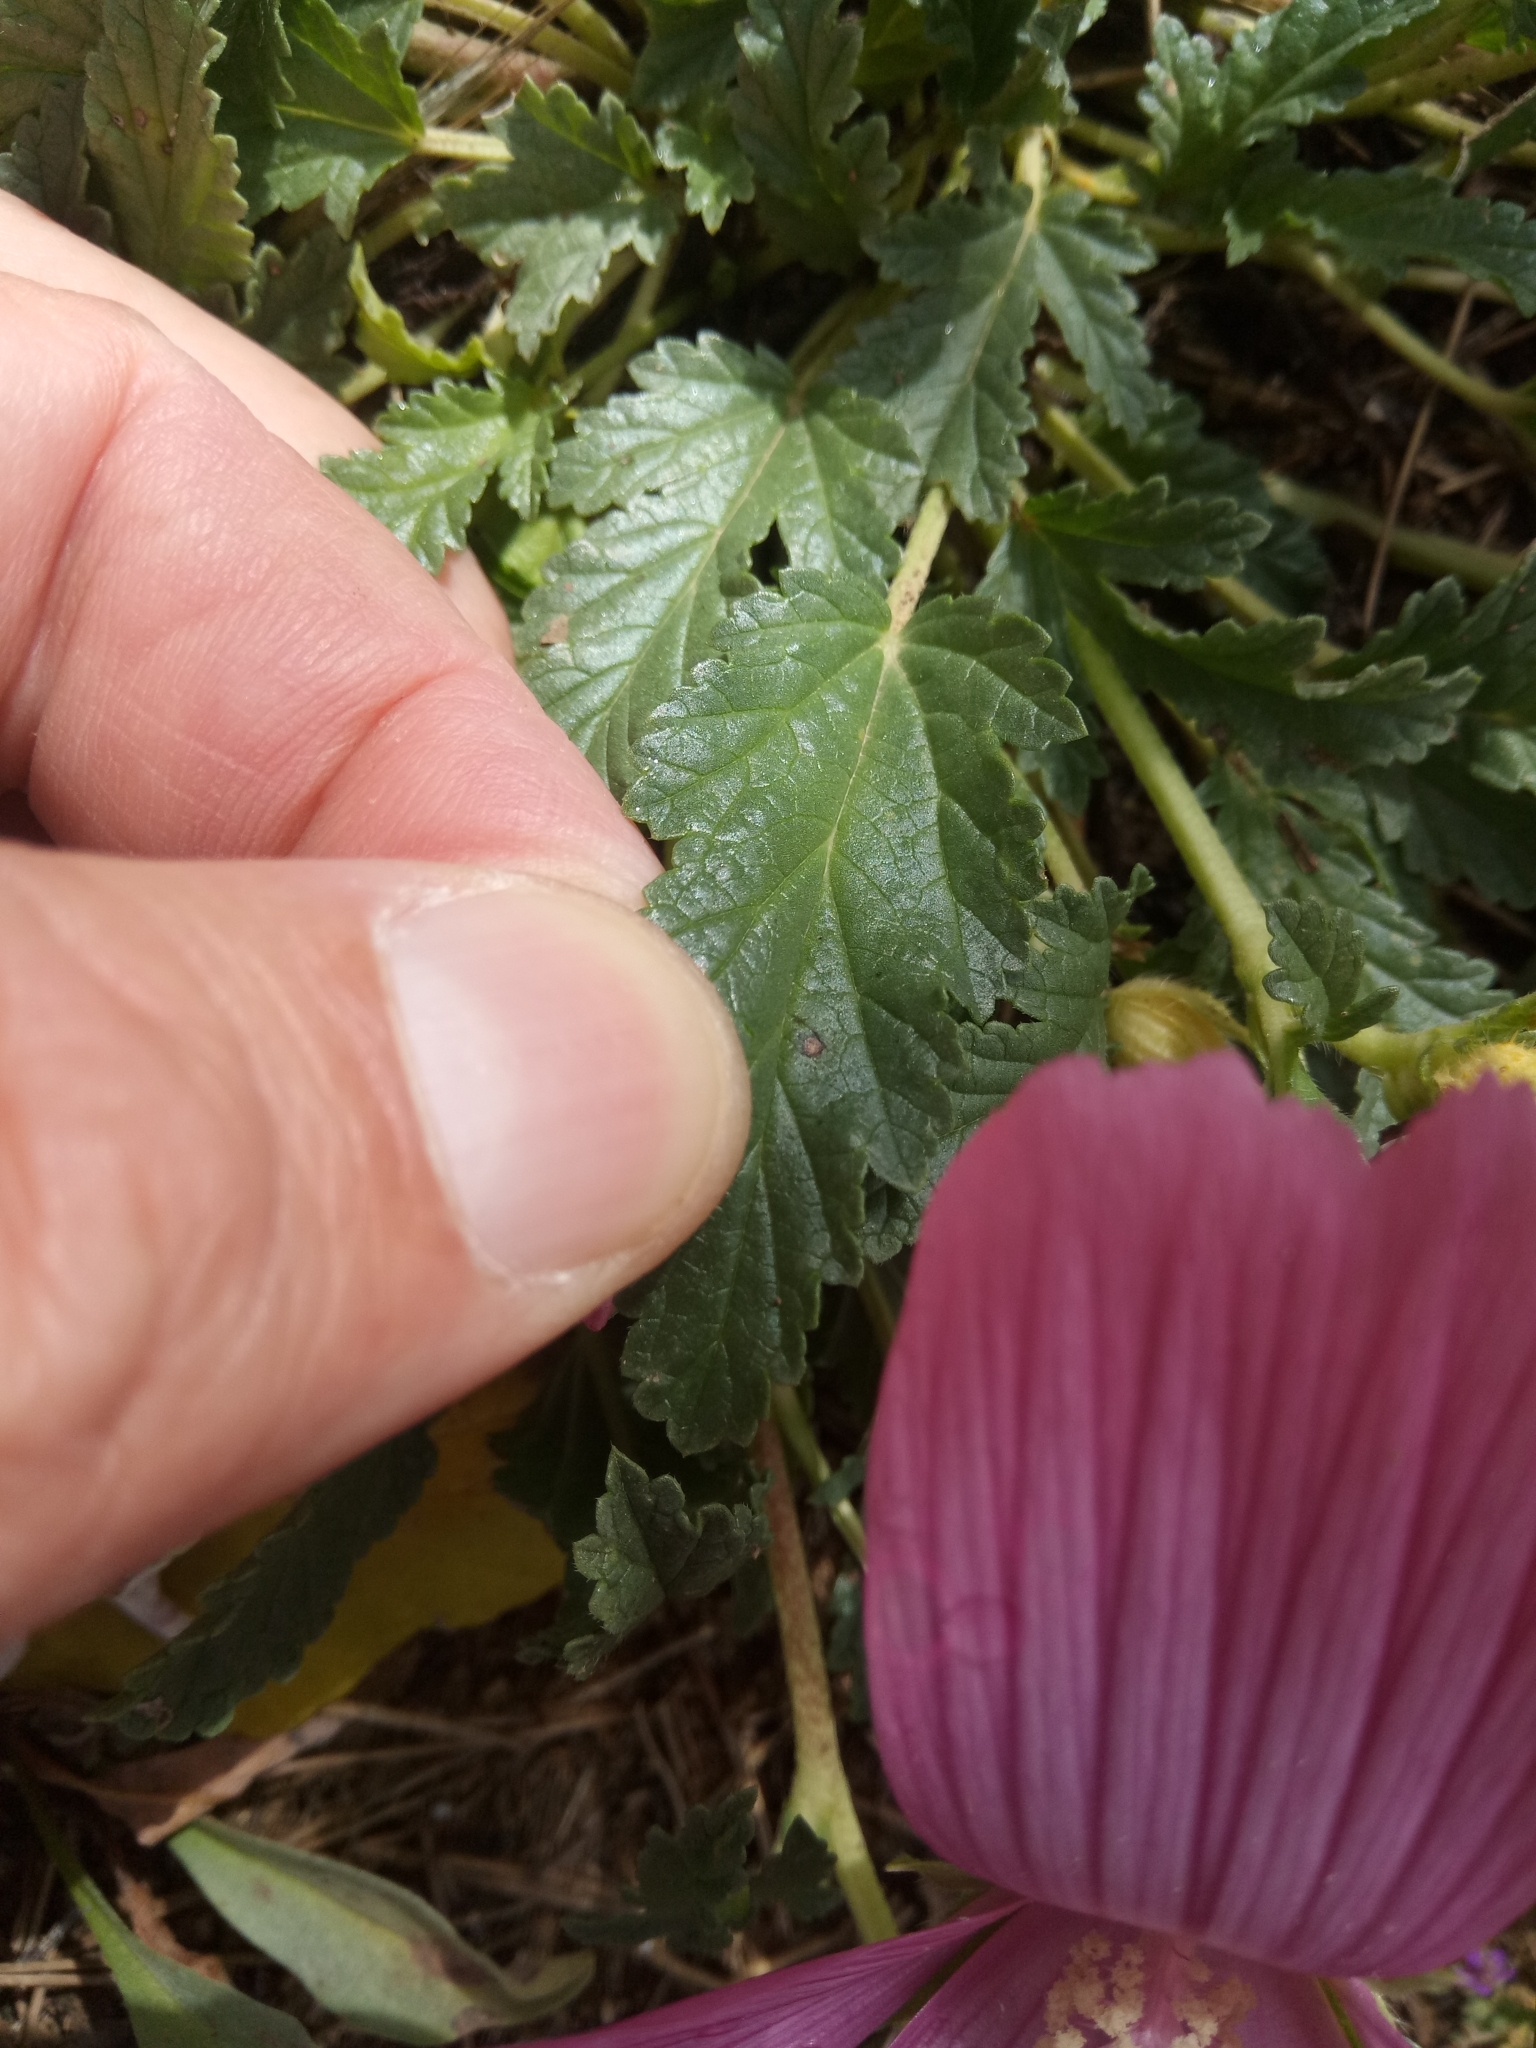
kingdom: Plantae
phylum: Tracheophyta
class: Magnoliopsida
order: Malvales
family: Malvaceae
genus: Malope
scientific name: Malope malacoides
